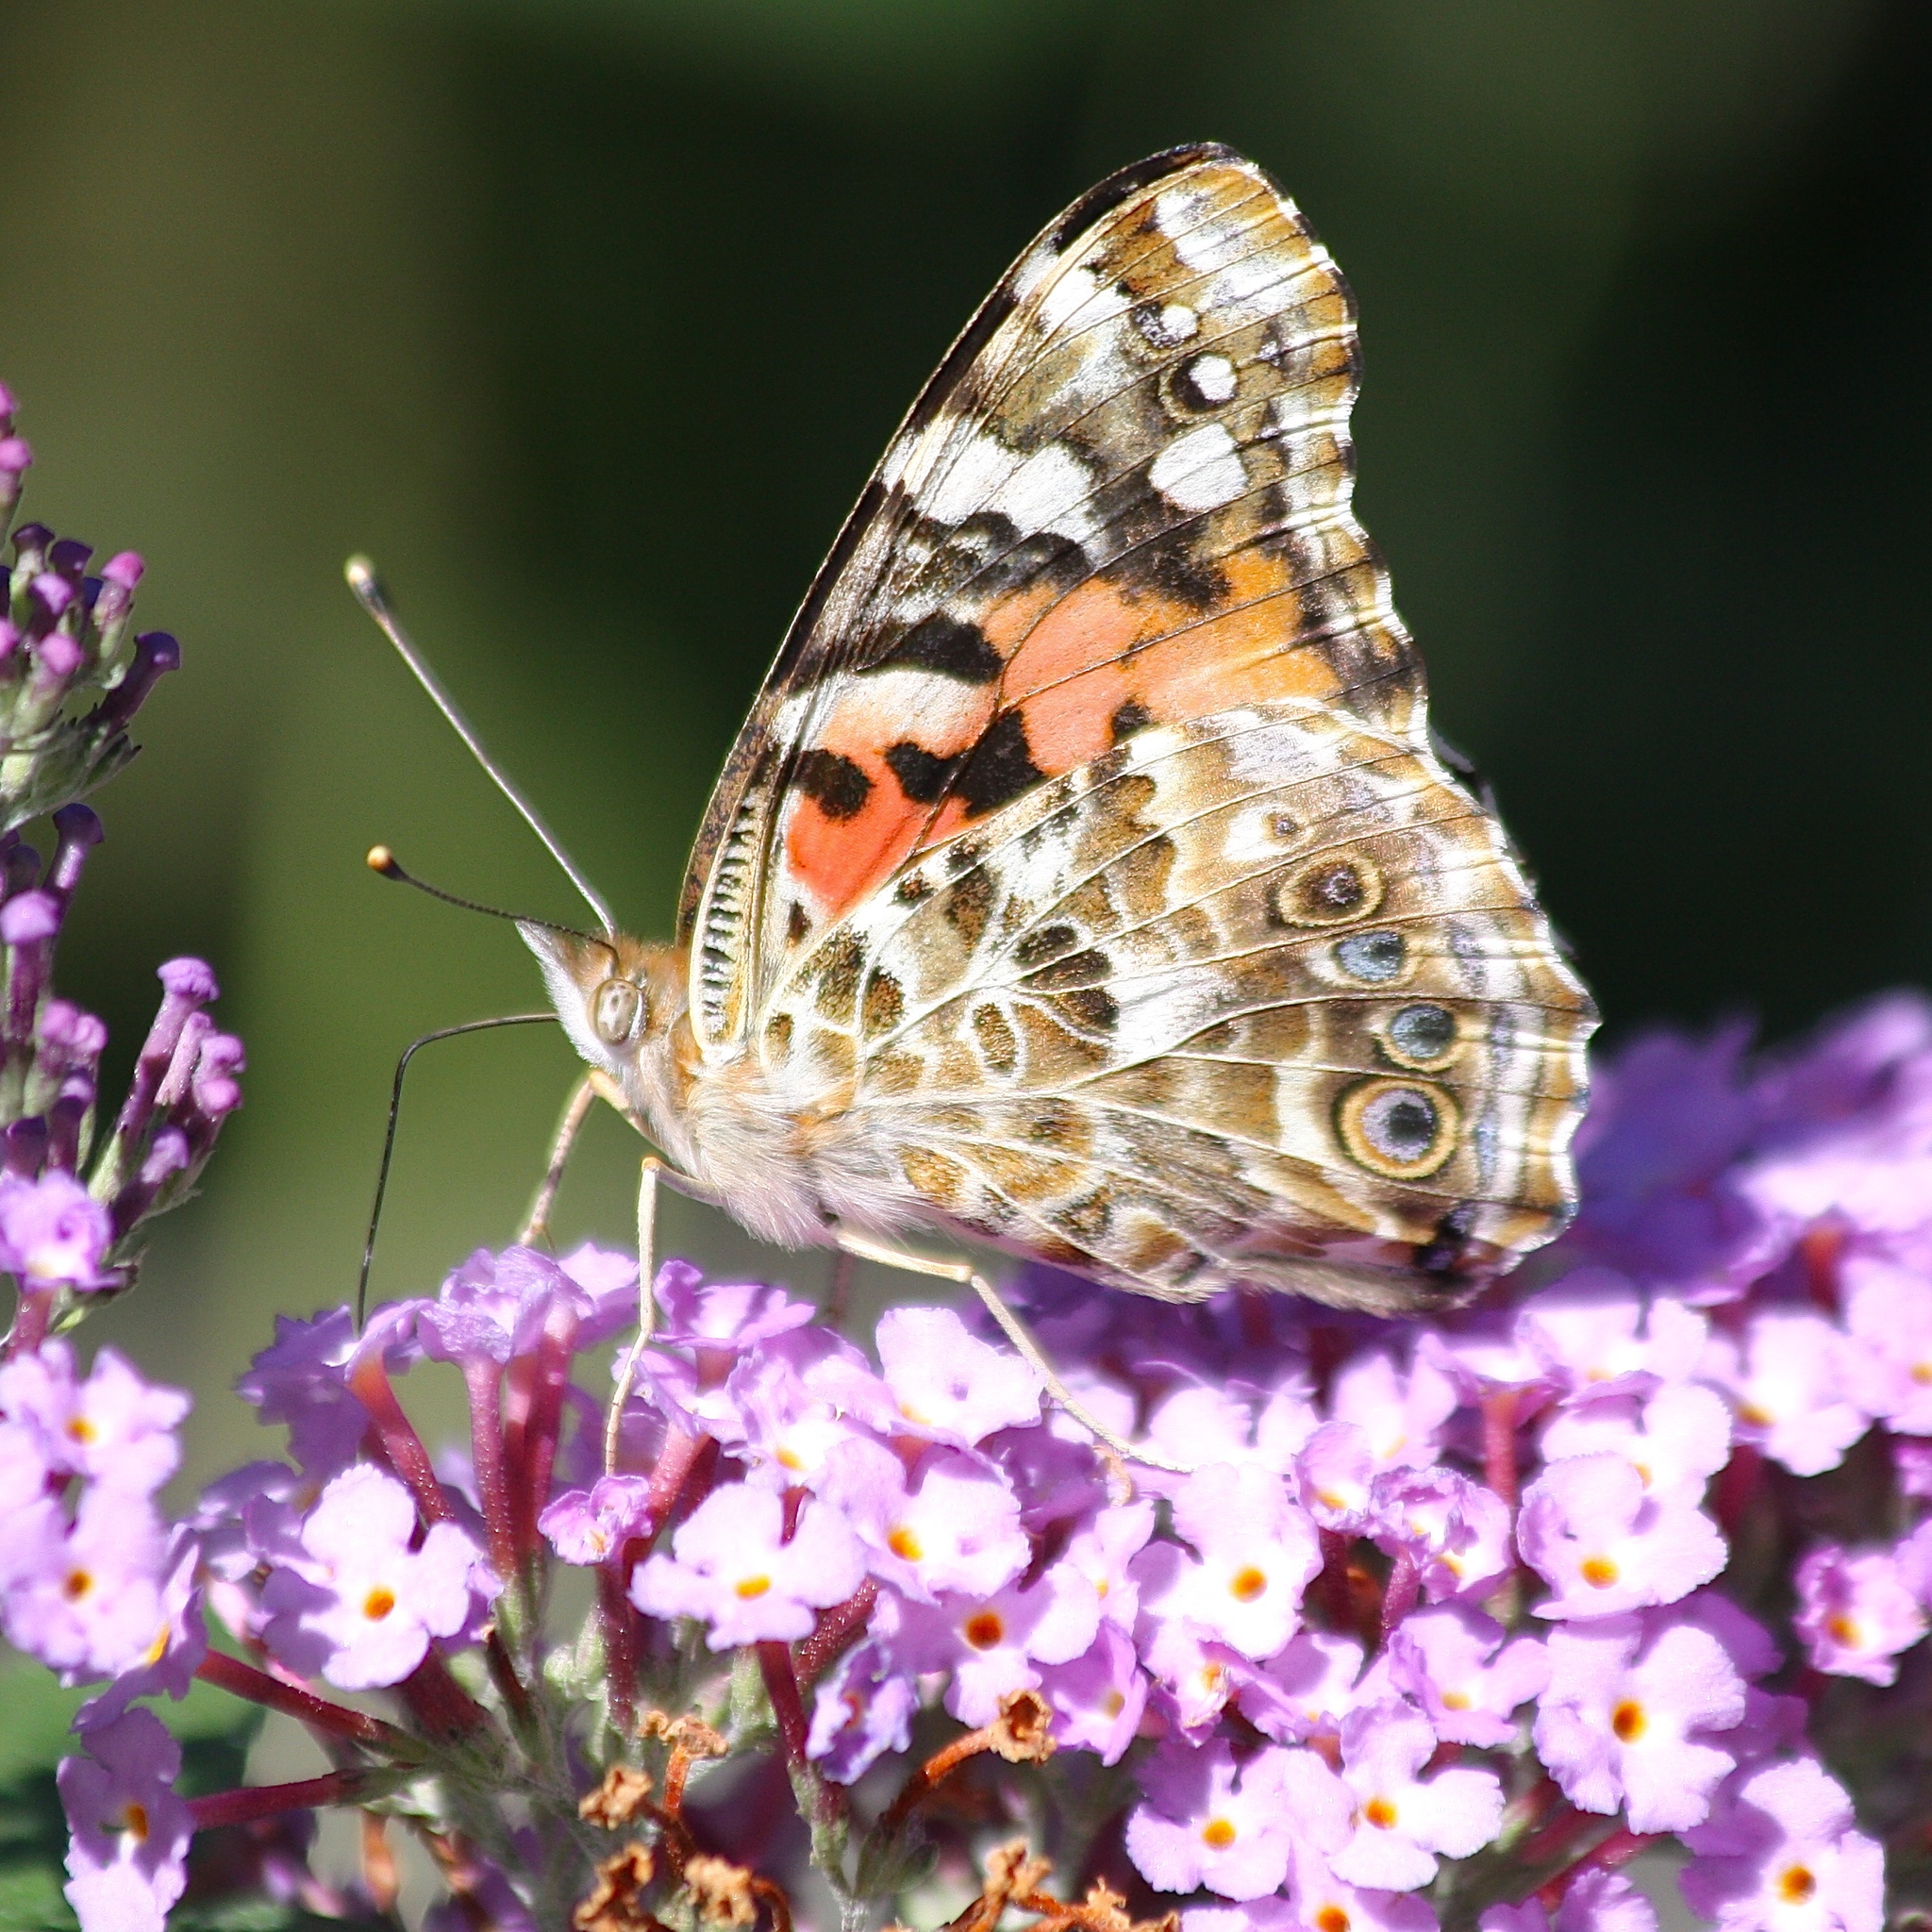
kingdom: Animalia
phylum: Arthropoda
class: Insecta
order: Lepidoptera
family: Nymphalidae
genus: Vanessa
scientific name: Vanessa cardui
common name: Painted lady
